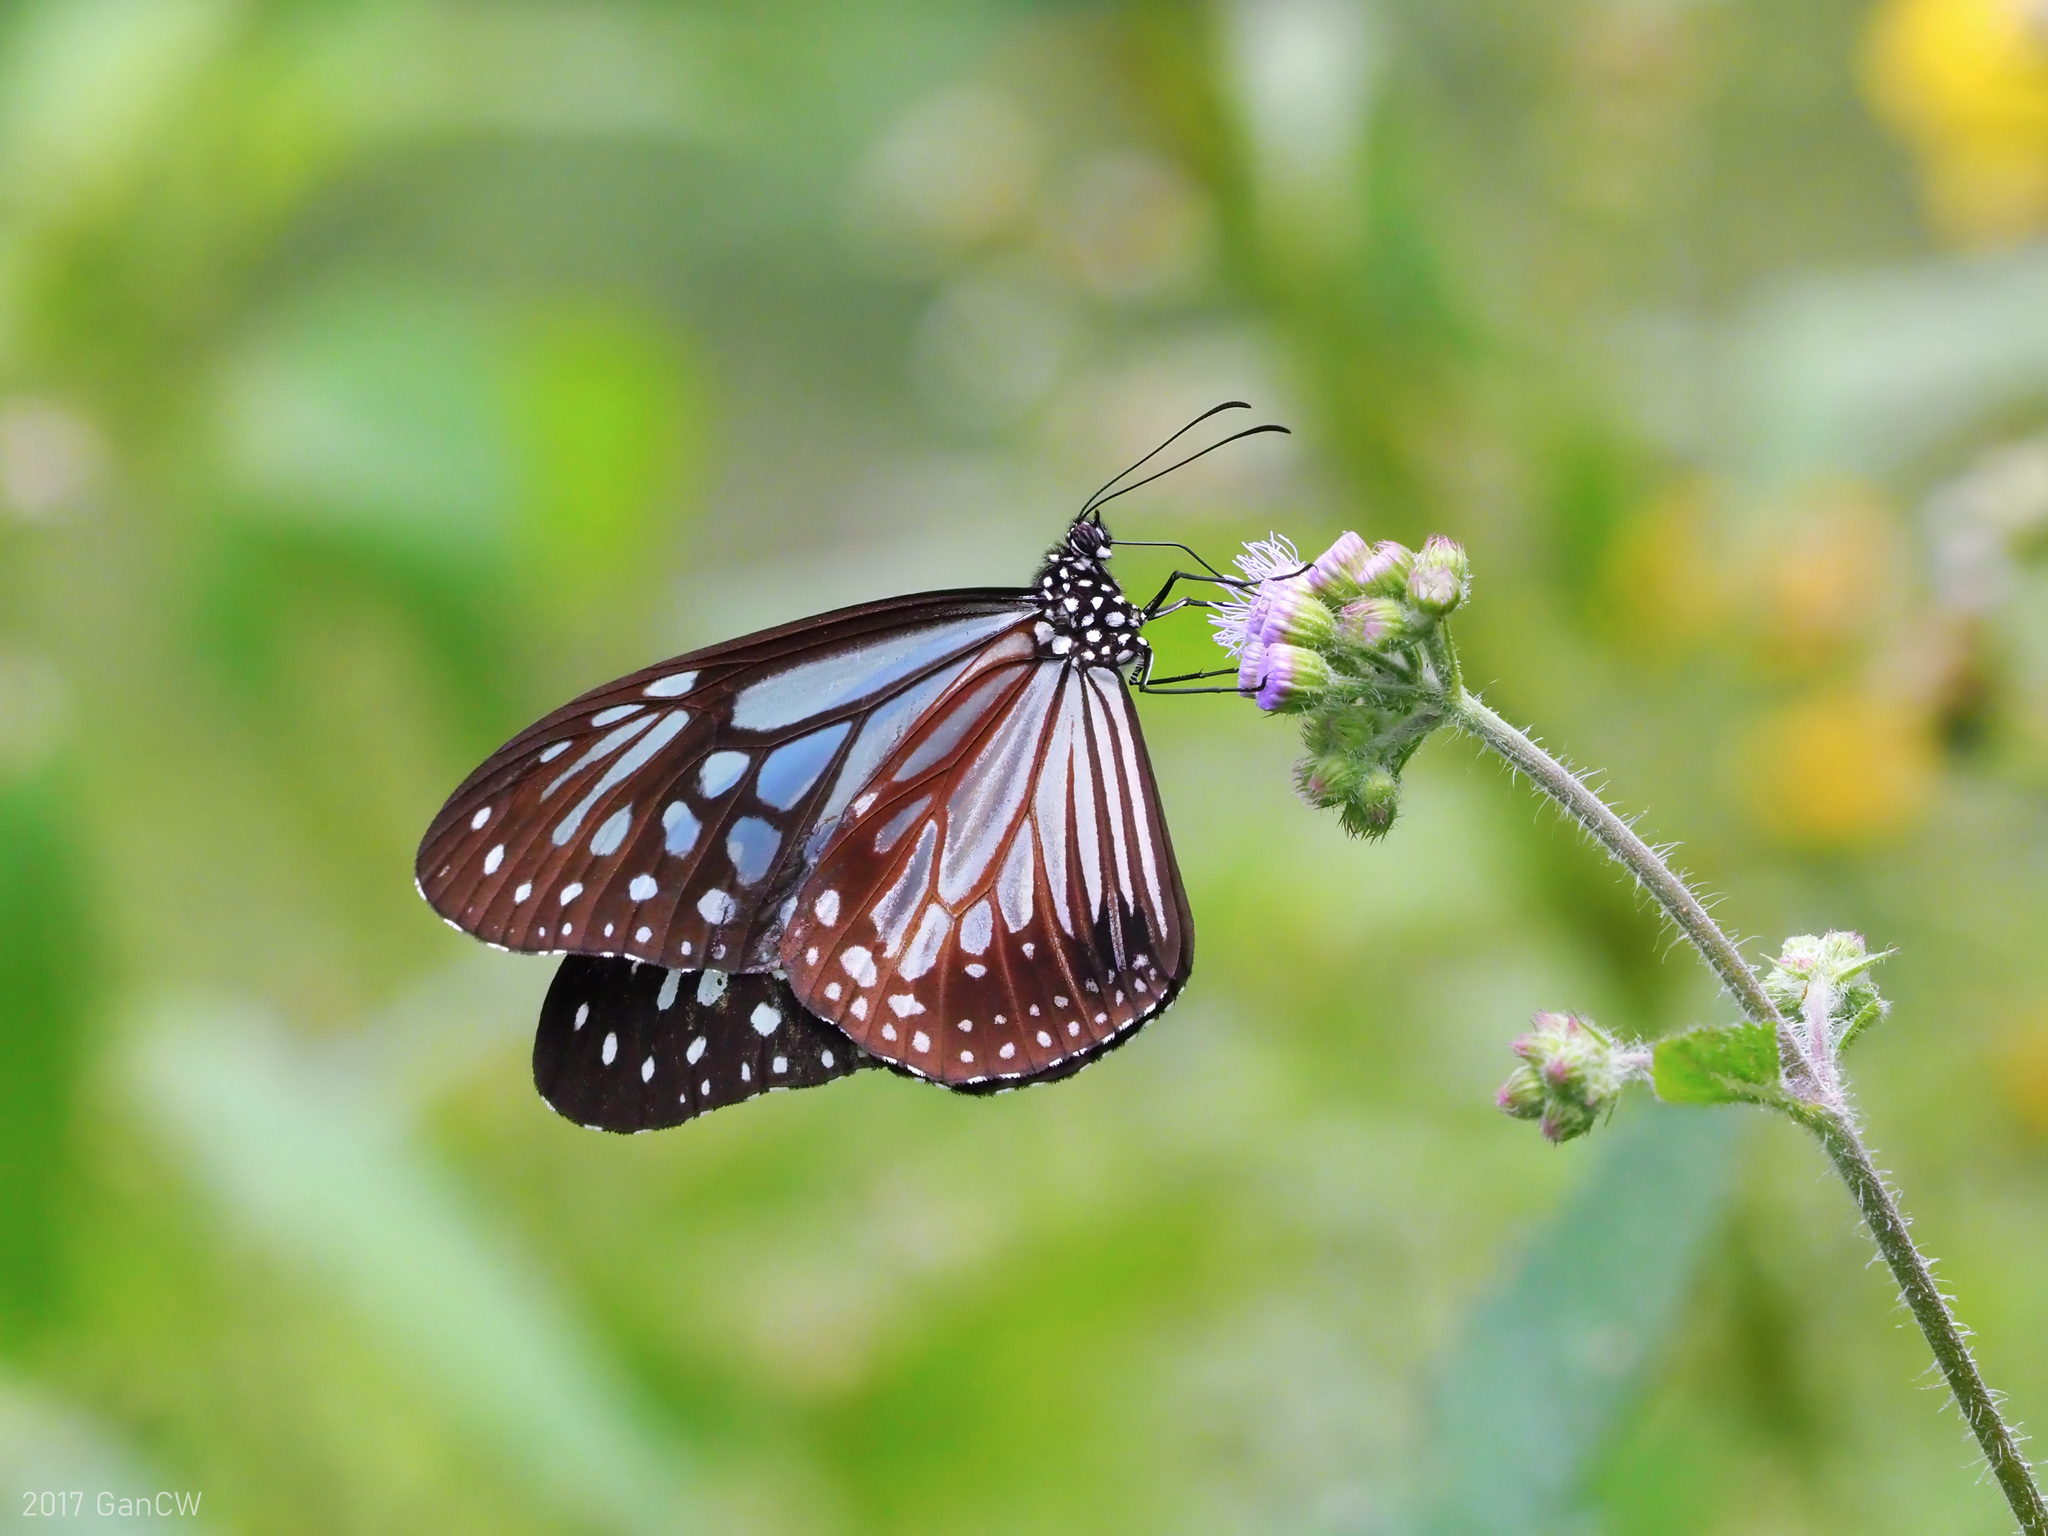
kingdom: Animalia
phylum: Arthropoda
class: Insecta
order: Lepidoptera
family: Nymphalidae
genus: Parantica
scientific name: Parantica melaneus
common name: Chocolate tiger
